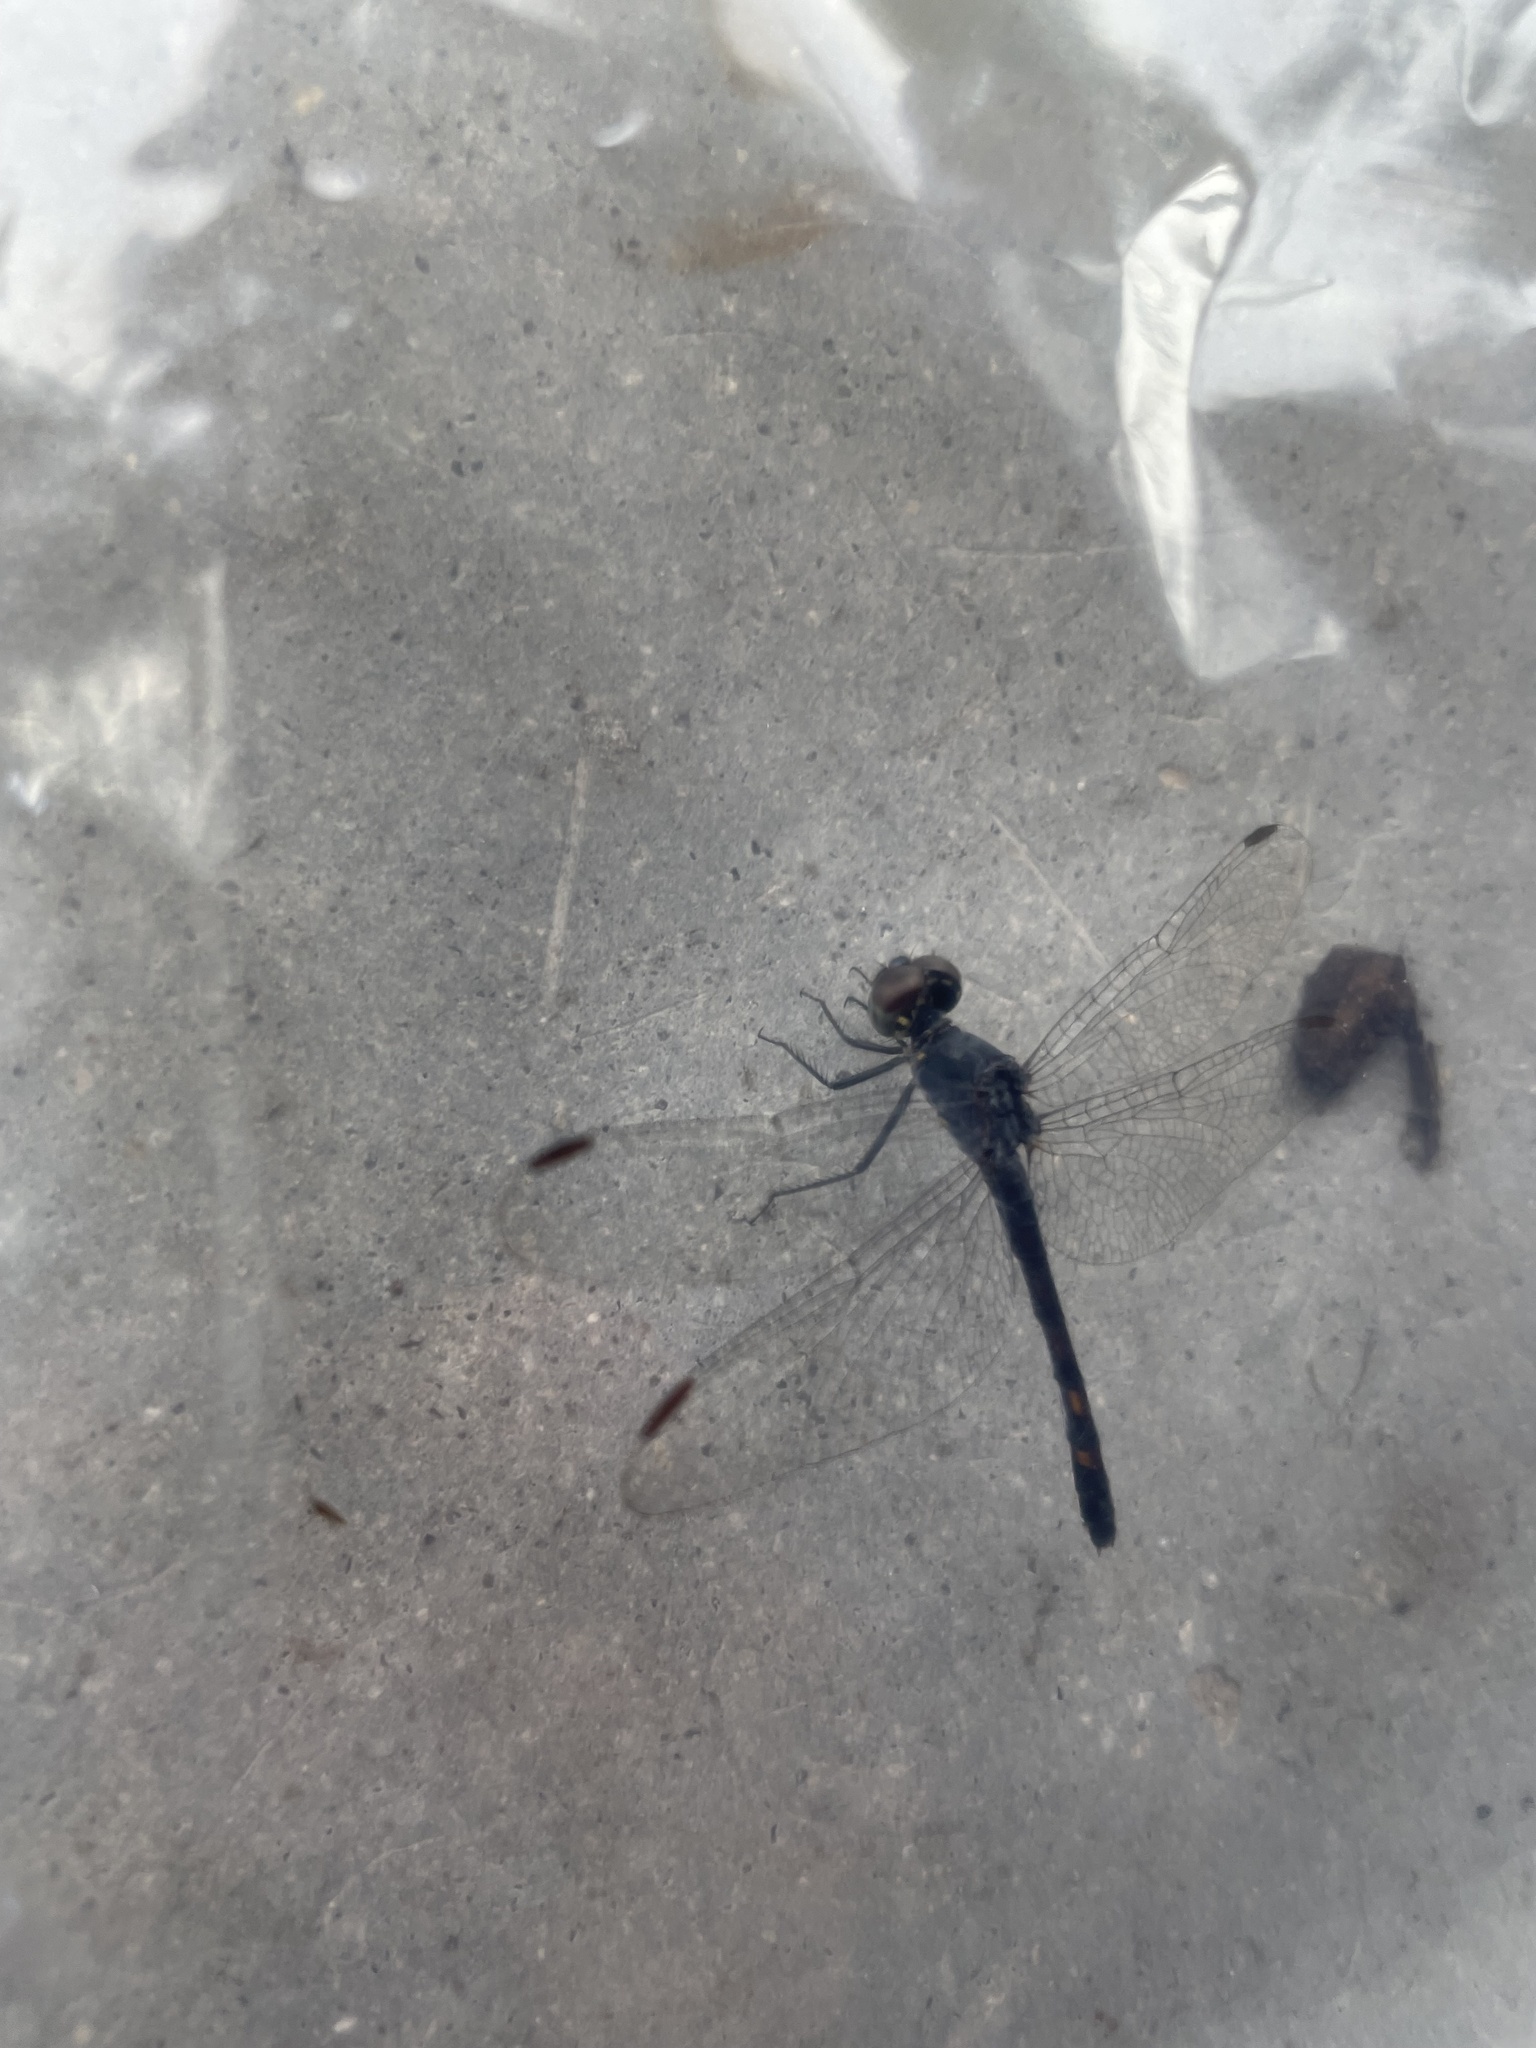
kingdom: Animalia
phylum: Arthropoda
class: Insecta
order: Odonata
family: Libellulidae
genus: Erythrodiplax
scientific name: Erythrodiplax berenice
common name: Seaside dragonlet
